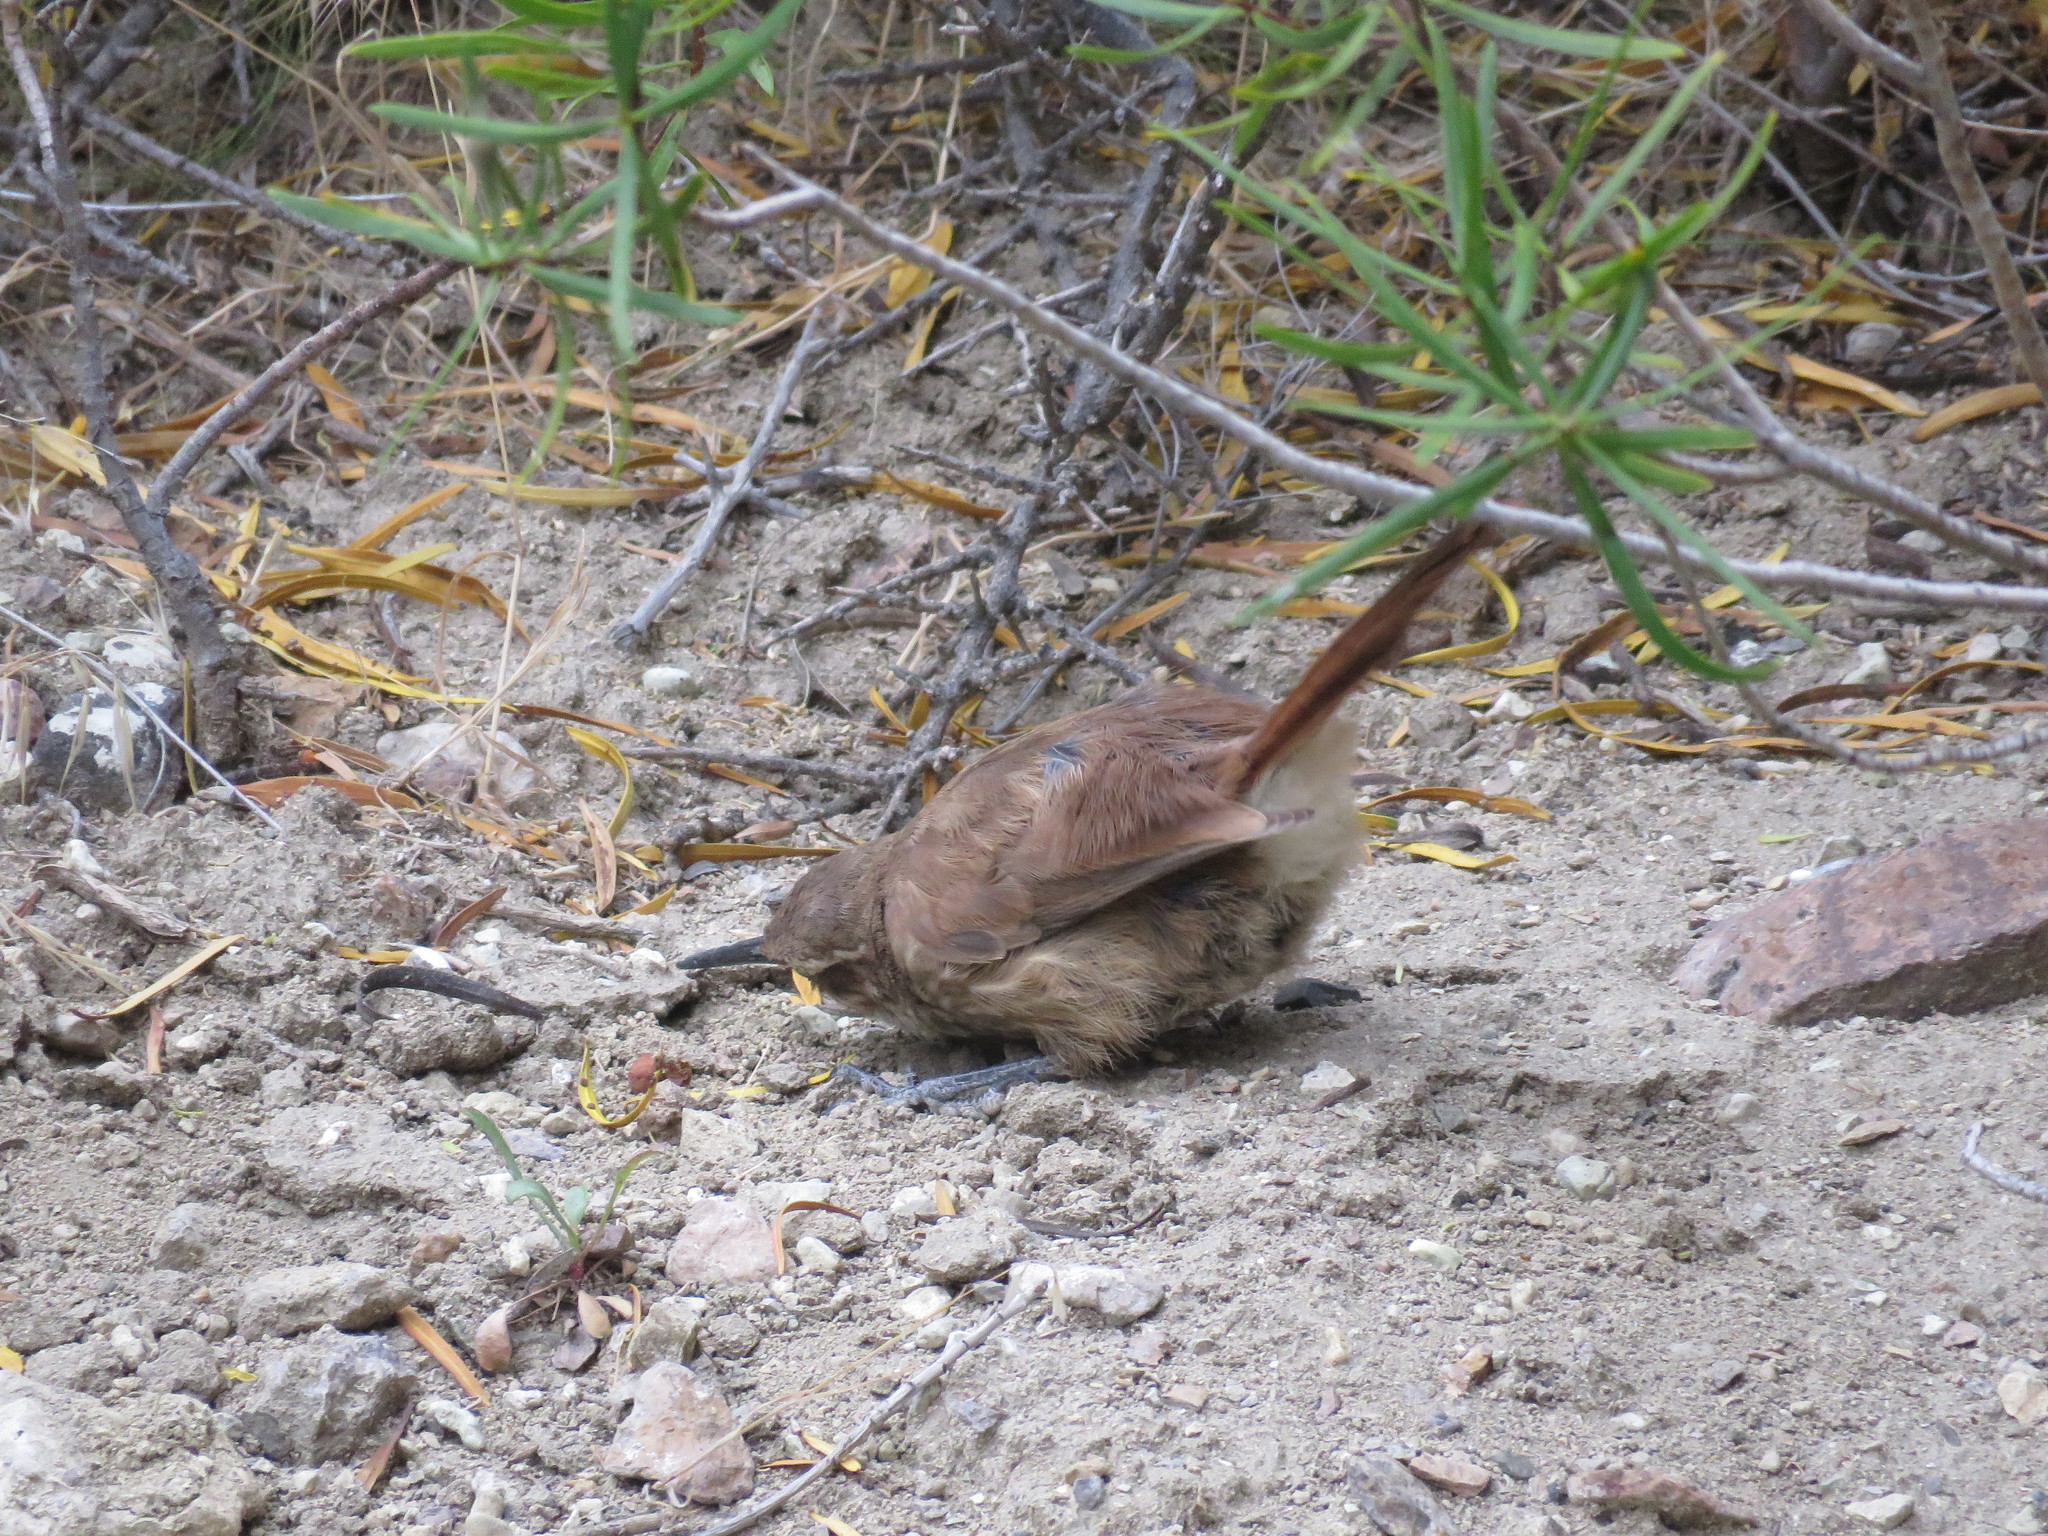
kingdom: Animalia
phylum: Chordata
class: Aves
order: Passeriformes
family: Furnariidae
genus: Upucerthia
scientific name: Upucerthia ruficaudus
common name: Straight-billed earthcreeper
